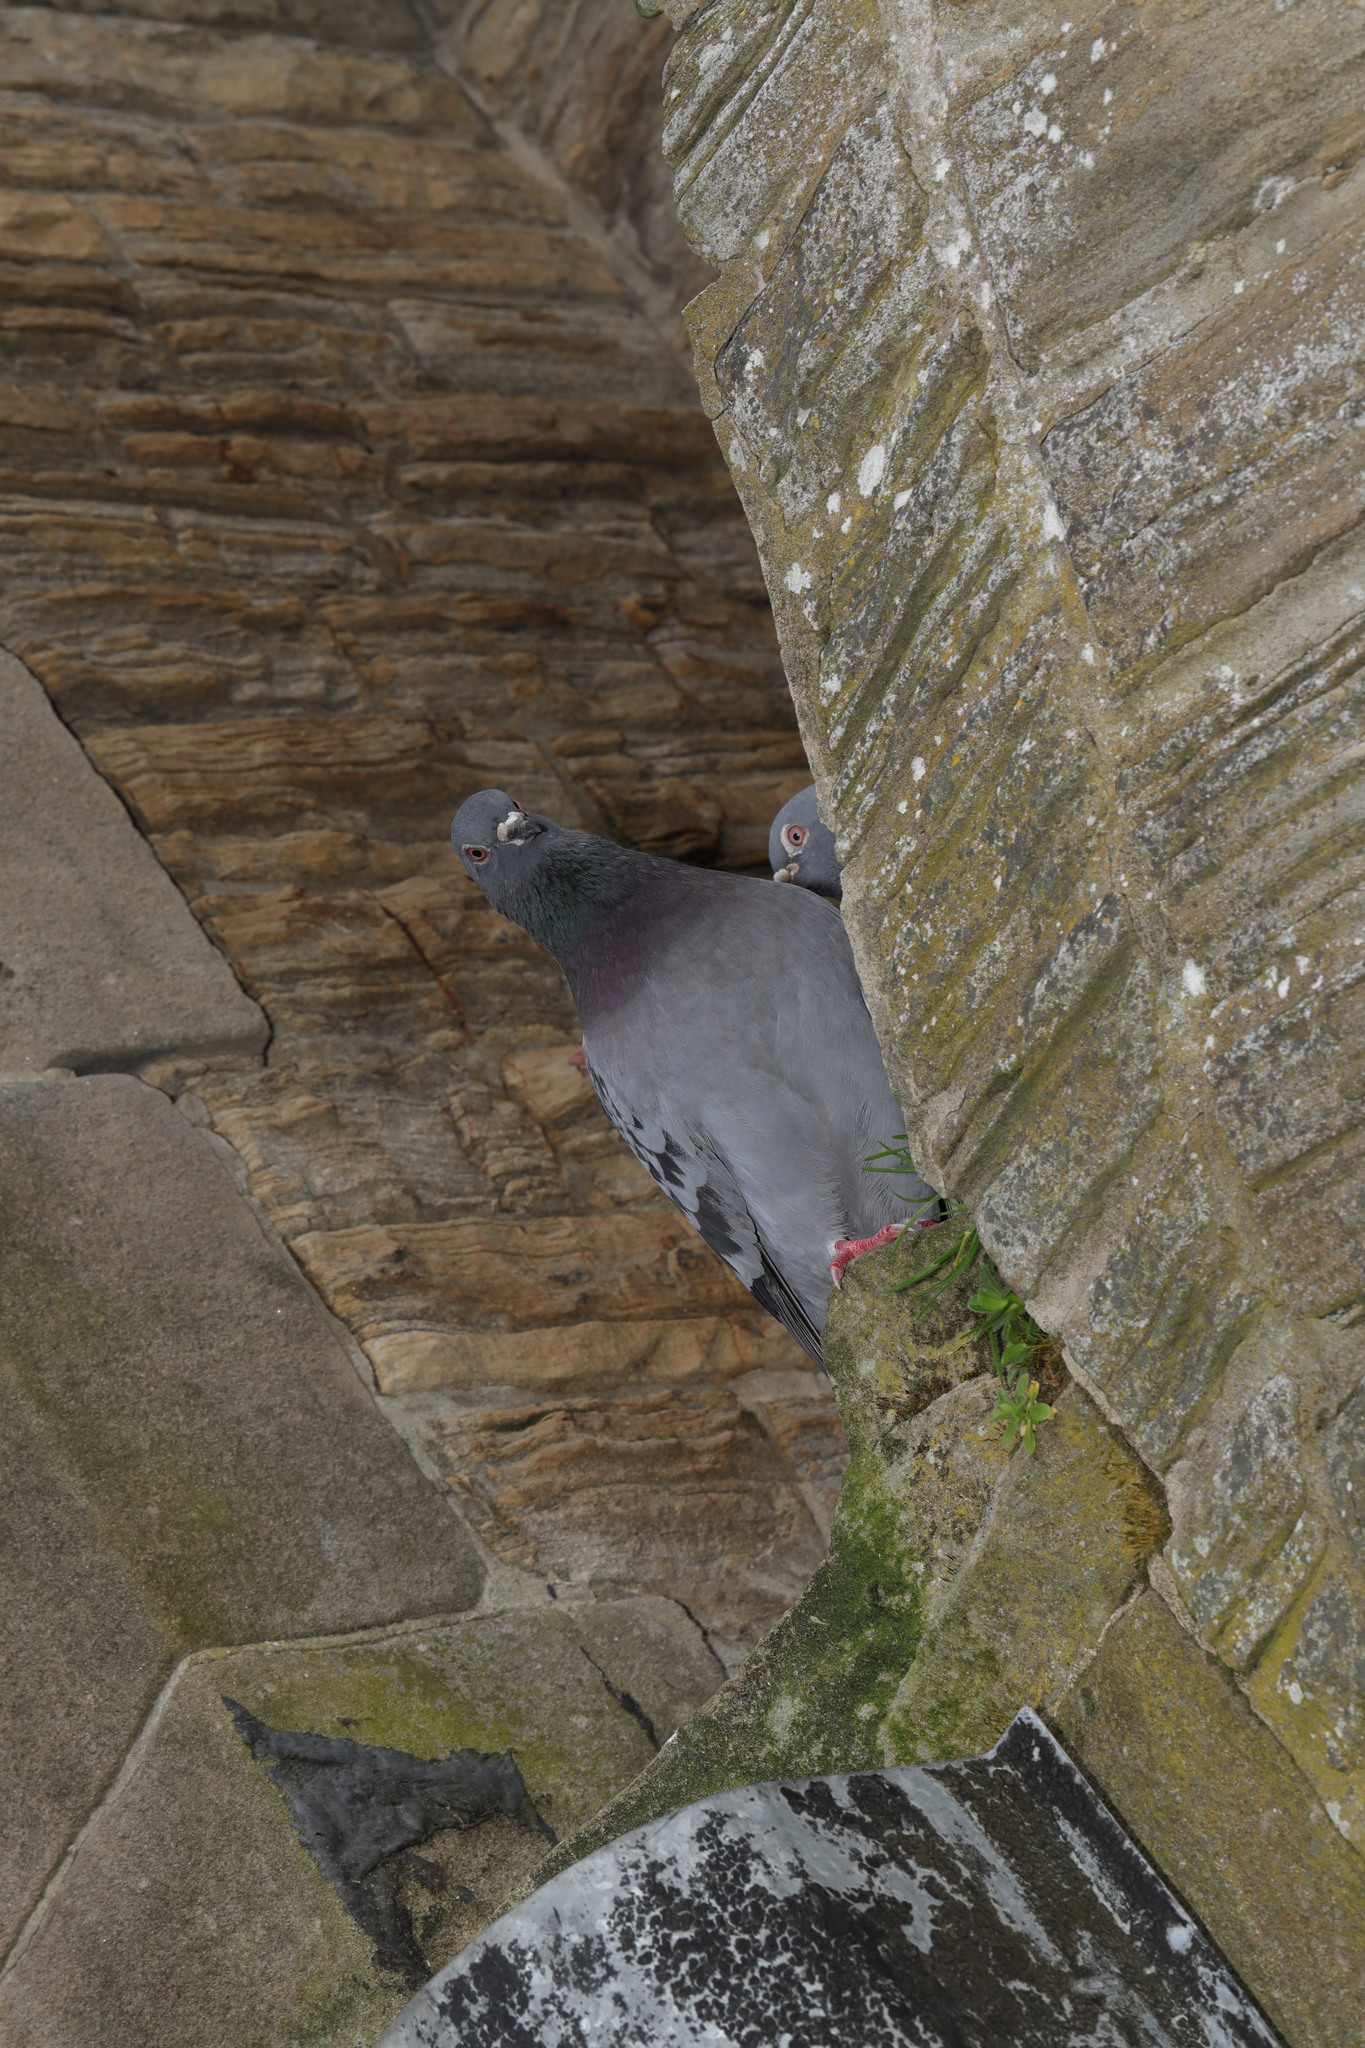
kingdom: Animalia
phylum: Chordata
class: Aves
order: Columbiformes
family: Columbidae
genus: Columba
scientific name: Columba livia
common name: Rock pigeon
